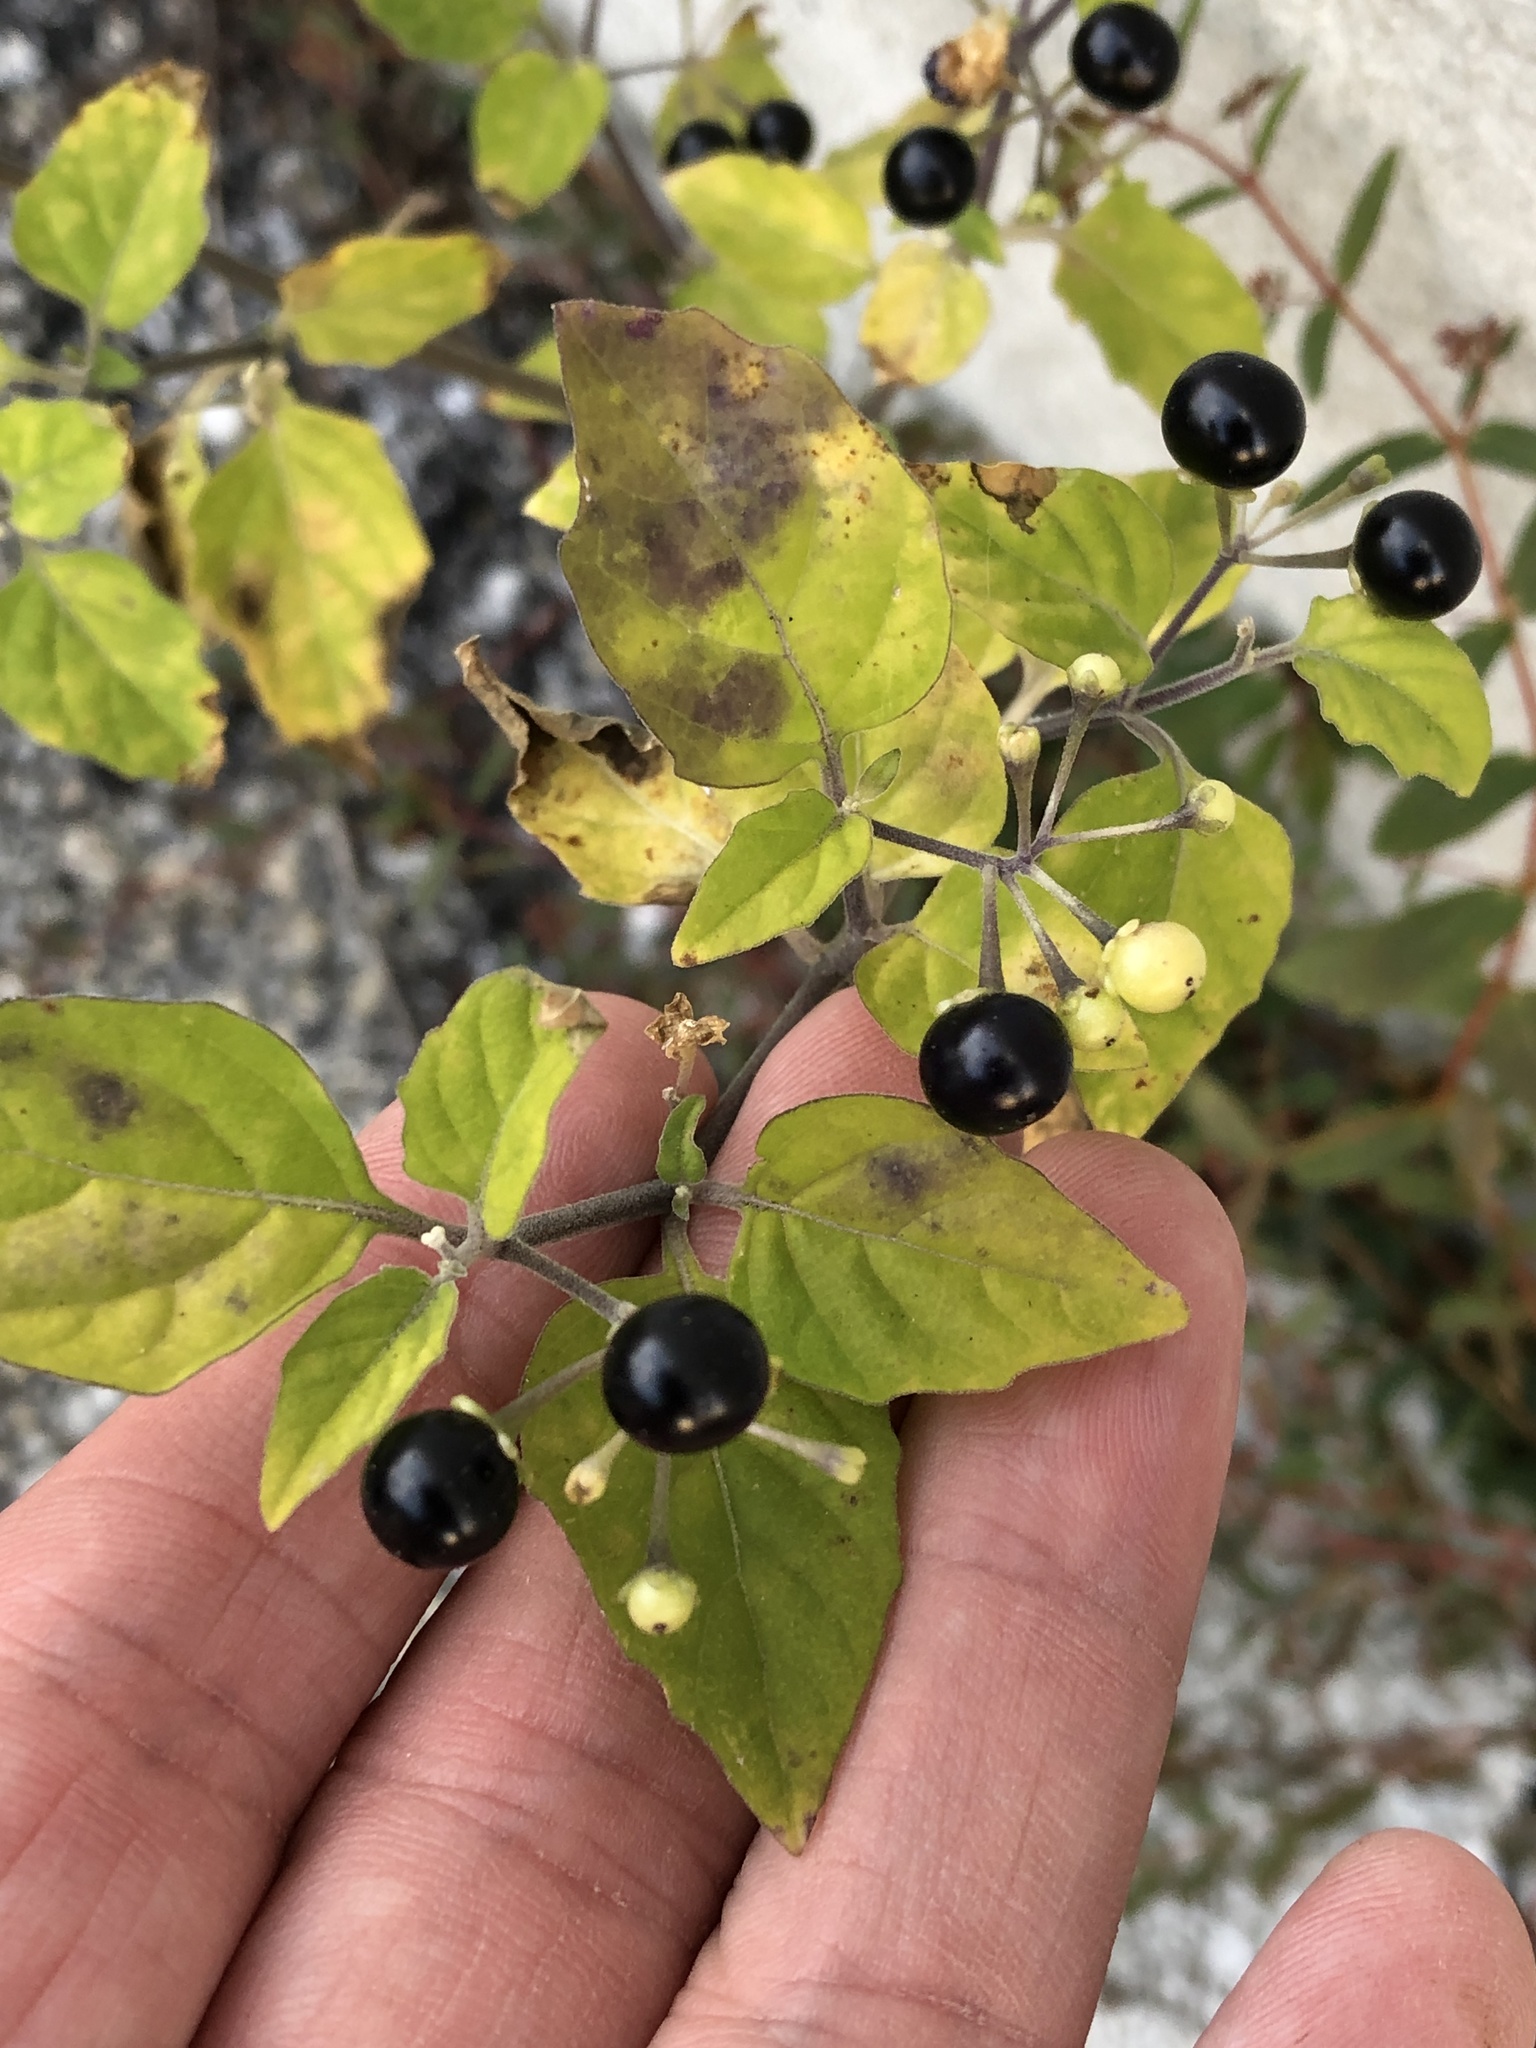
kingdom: Plantae
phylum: Tracheophyta
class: Magnoliopsida
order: Solanales
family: Solanaceae
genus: Solanum
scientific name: Solanum americanum
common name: American black nightshade
